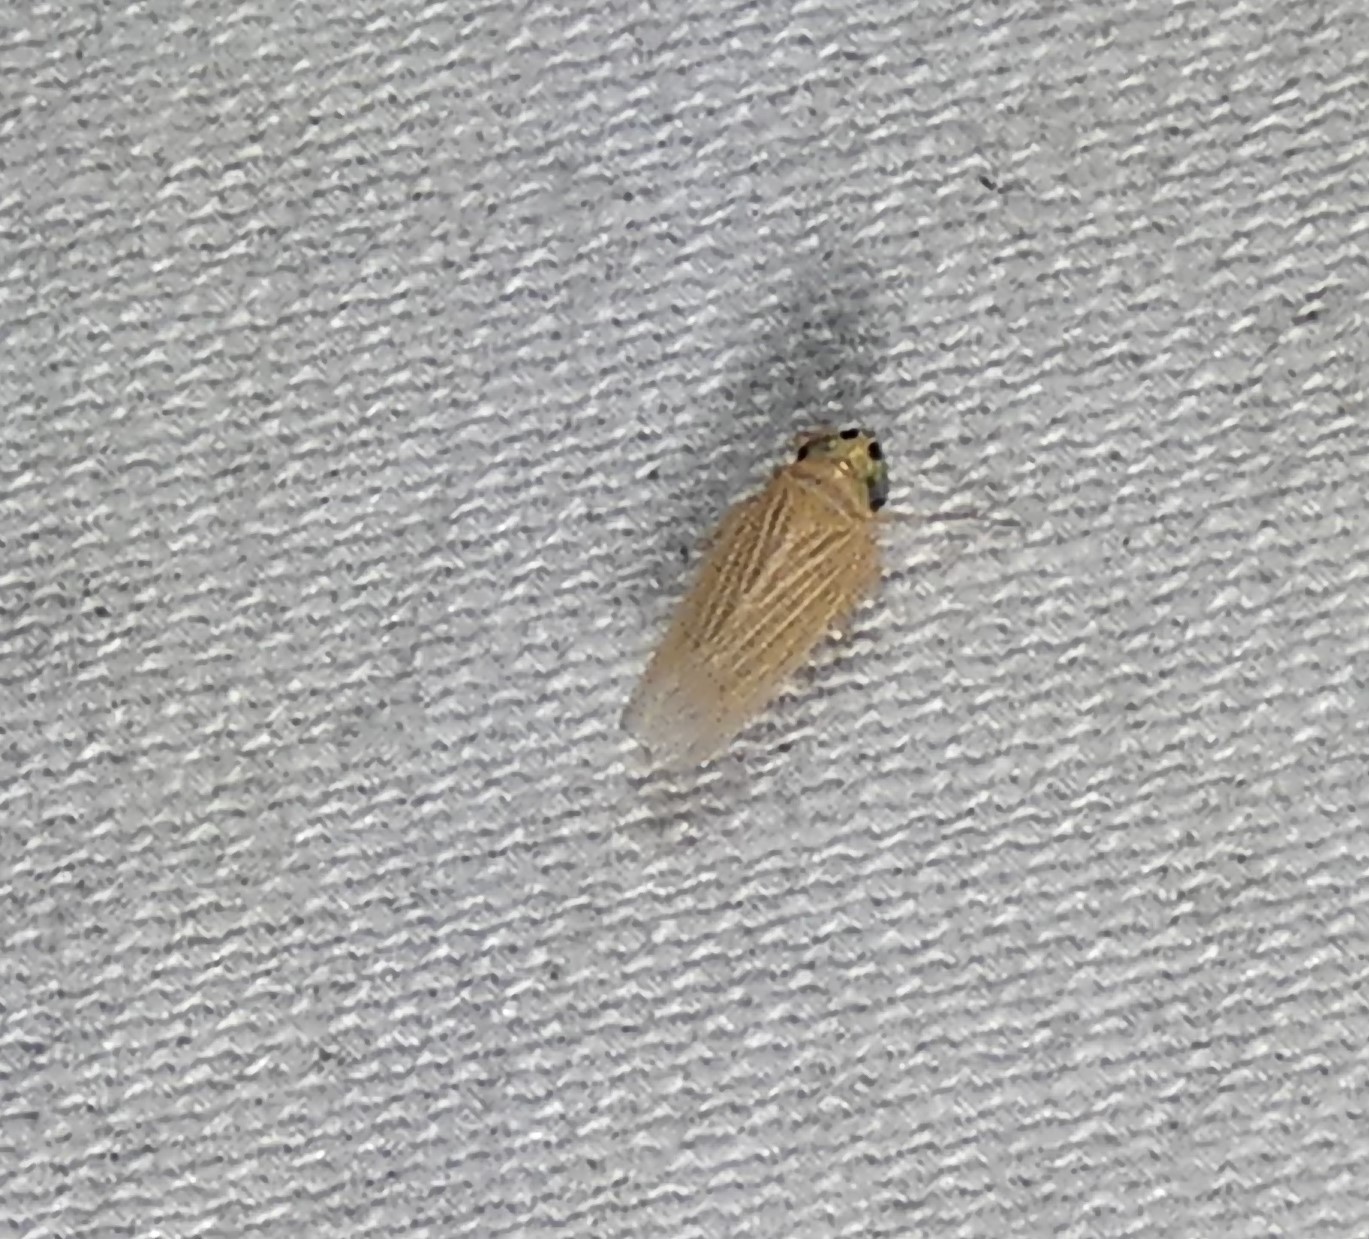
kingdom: Animalia
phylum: Arthropoda
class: Insecta
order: Hemiptera
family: Cicadellidae
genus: Graminella
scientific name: Graminella villicus
